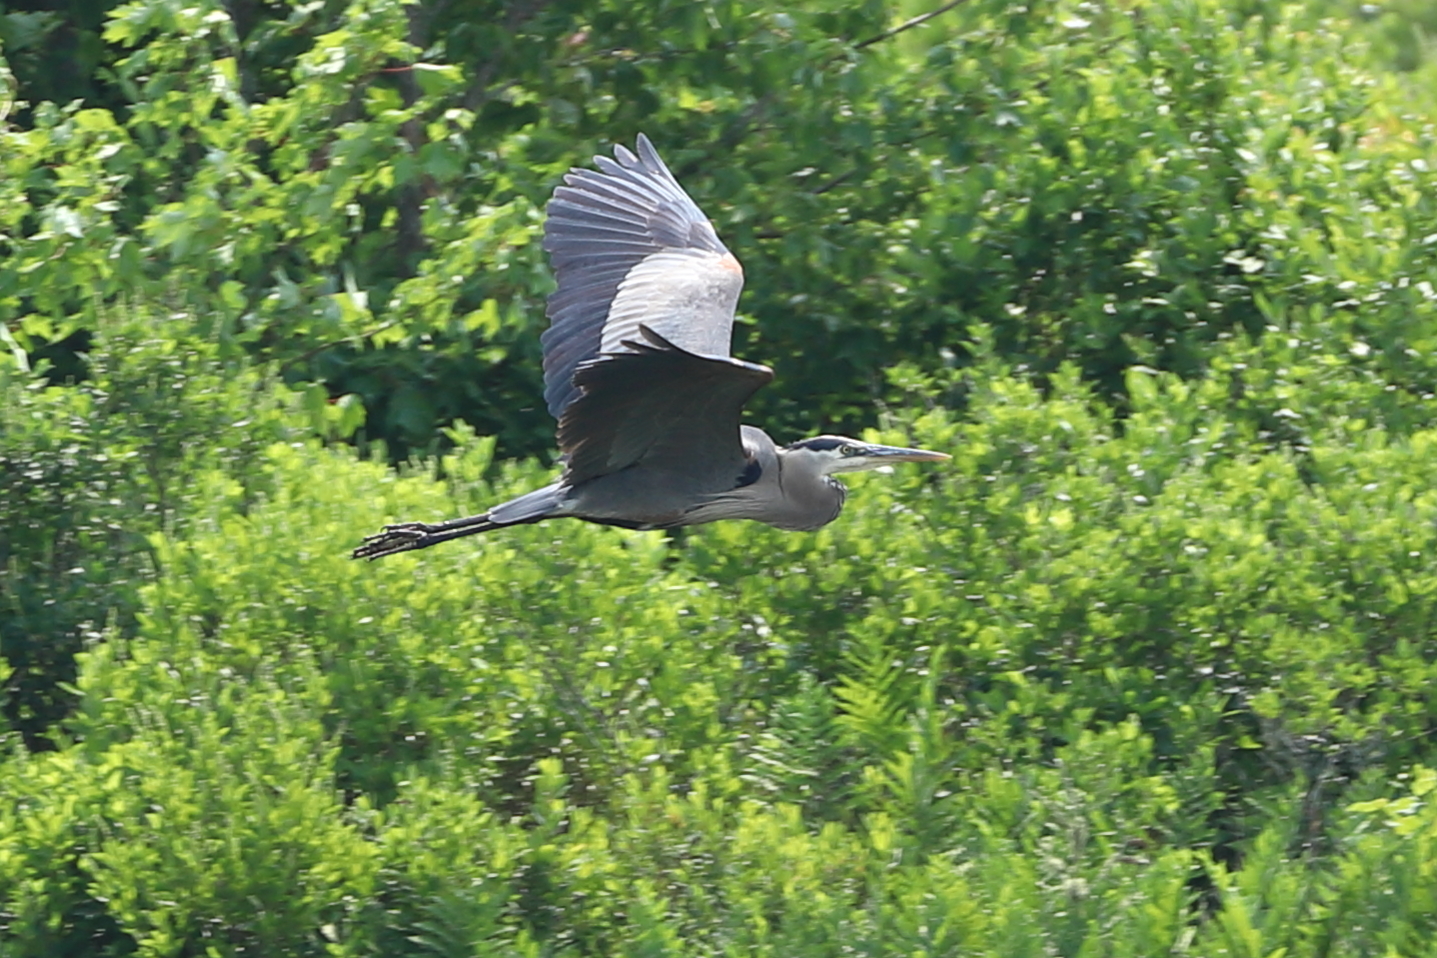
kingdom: Animalia
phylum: Chordata
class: Aves
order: Pelecaniformes
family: Ardeidae
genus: Ardea
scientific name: Ardea herodias
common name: Great blue heron
